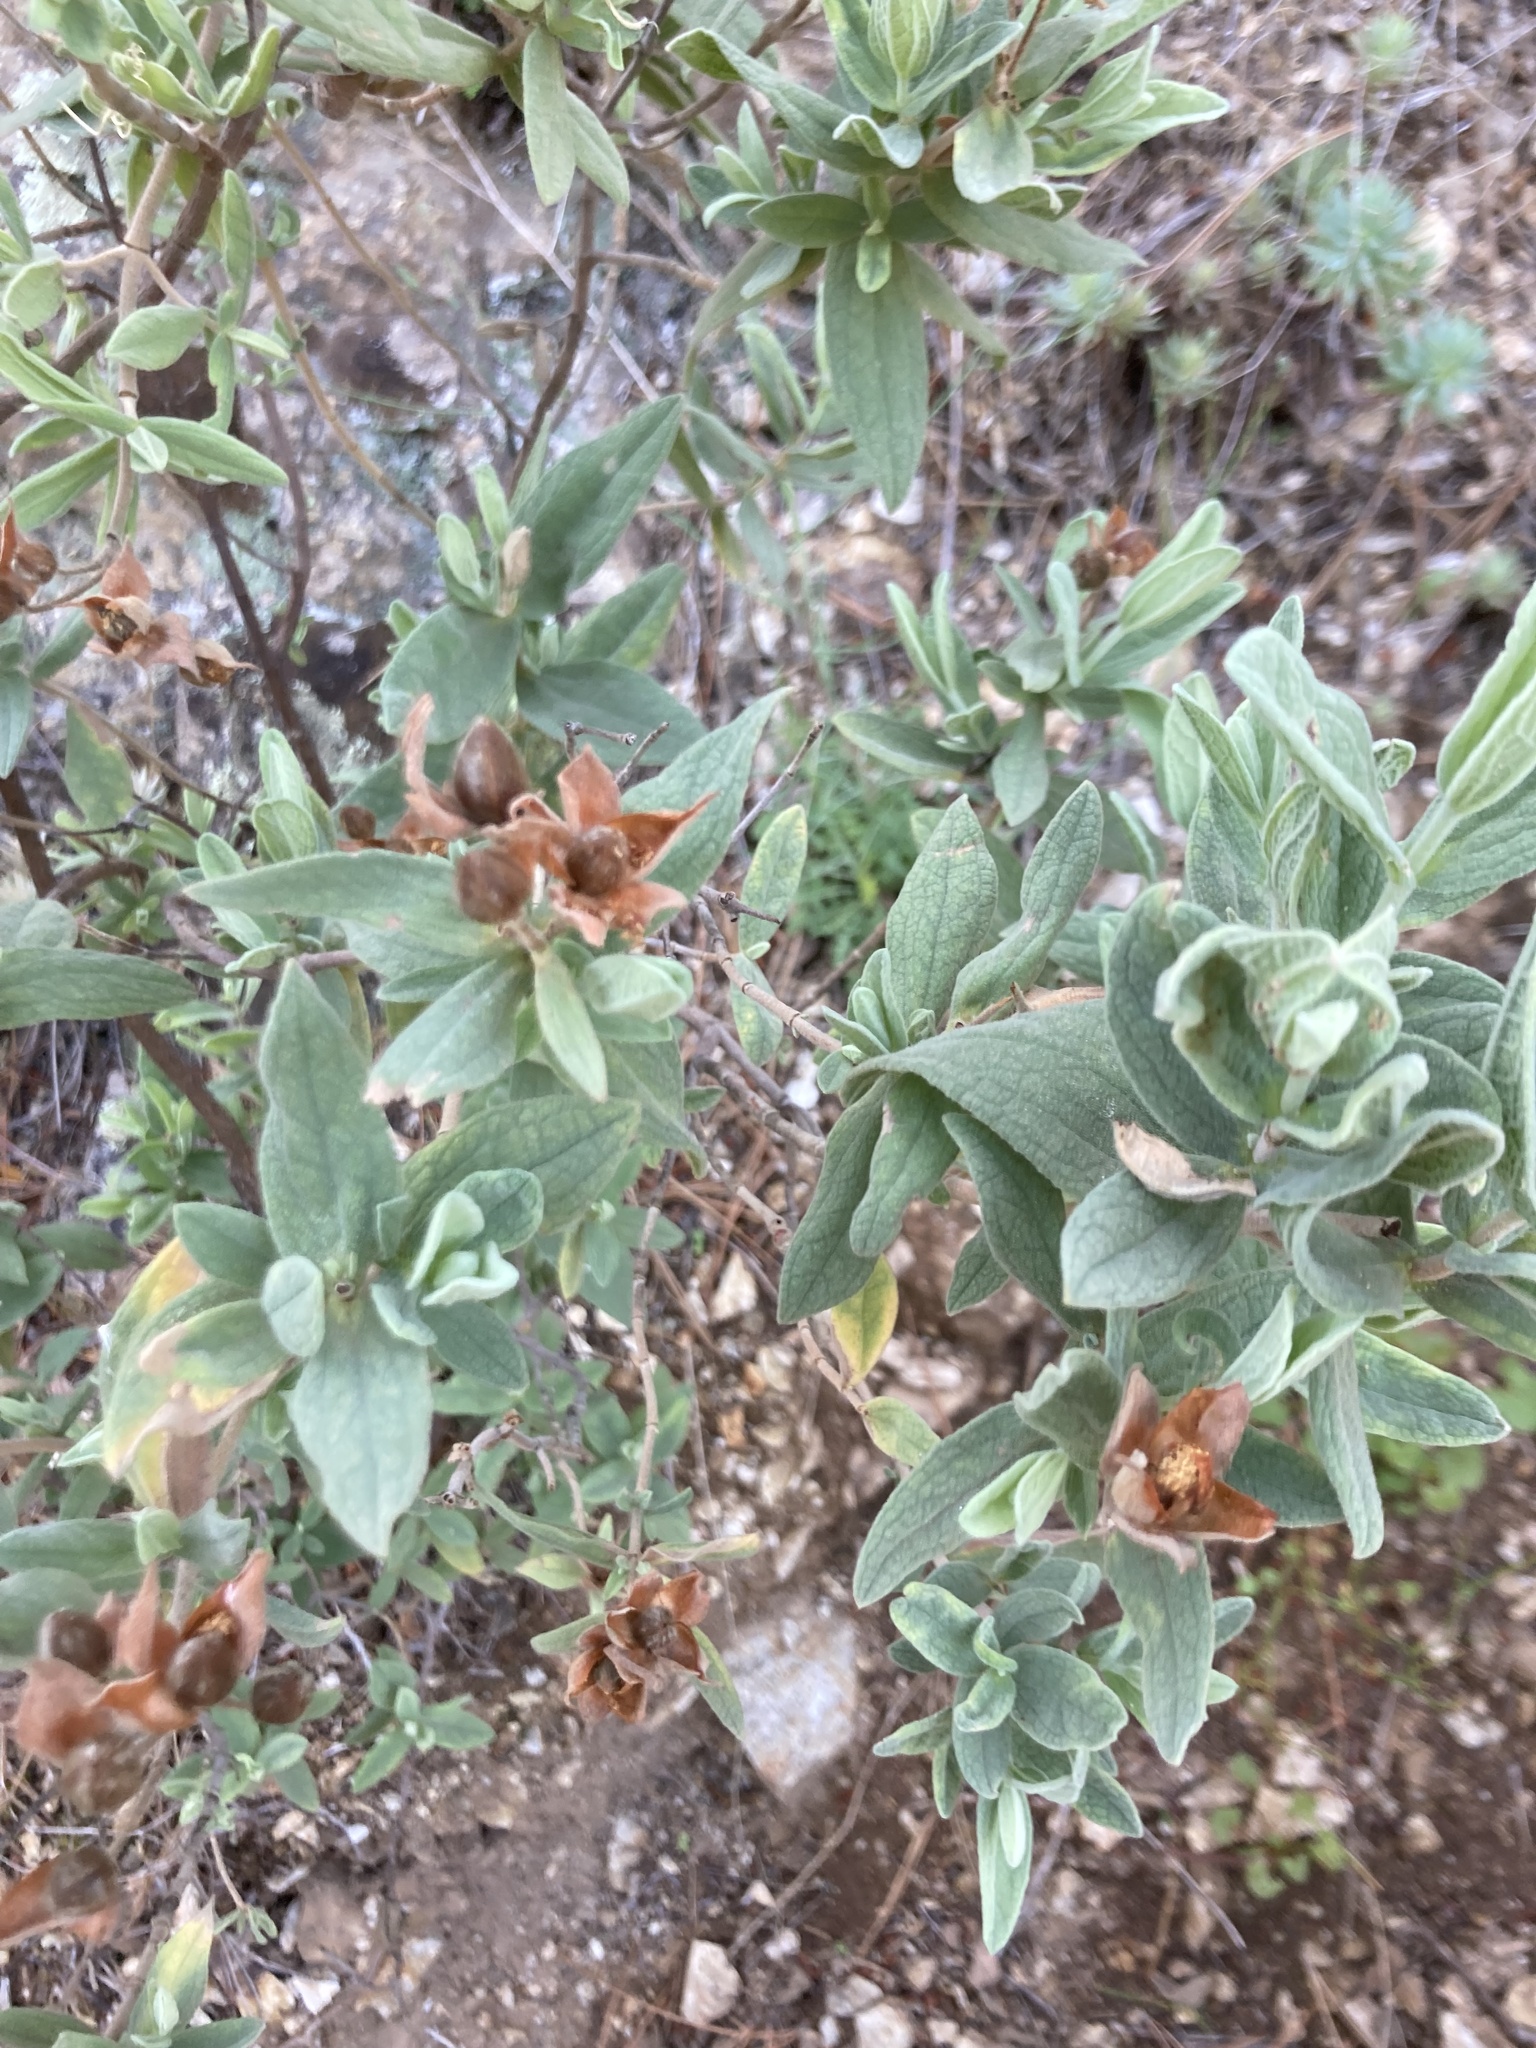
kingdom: Plantae
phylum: Tracheophyta
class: Magnoliopsida
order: Malvales
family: Cistaceae
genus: Cistus
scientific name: Cistus albidus
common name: White-leaf rock-rose
